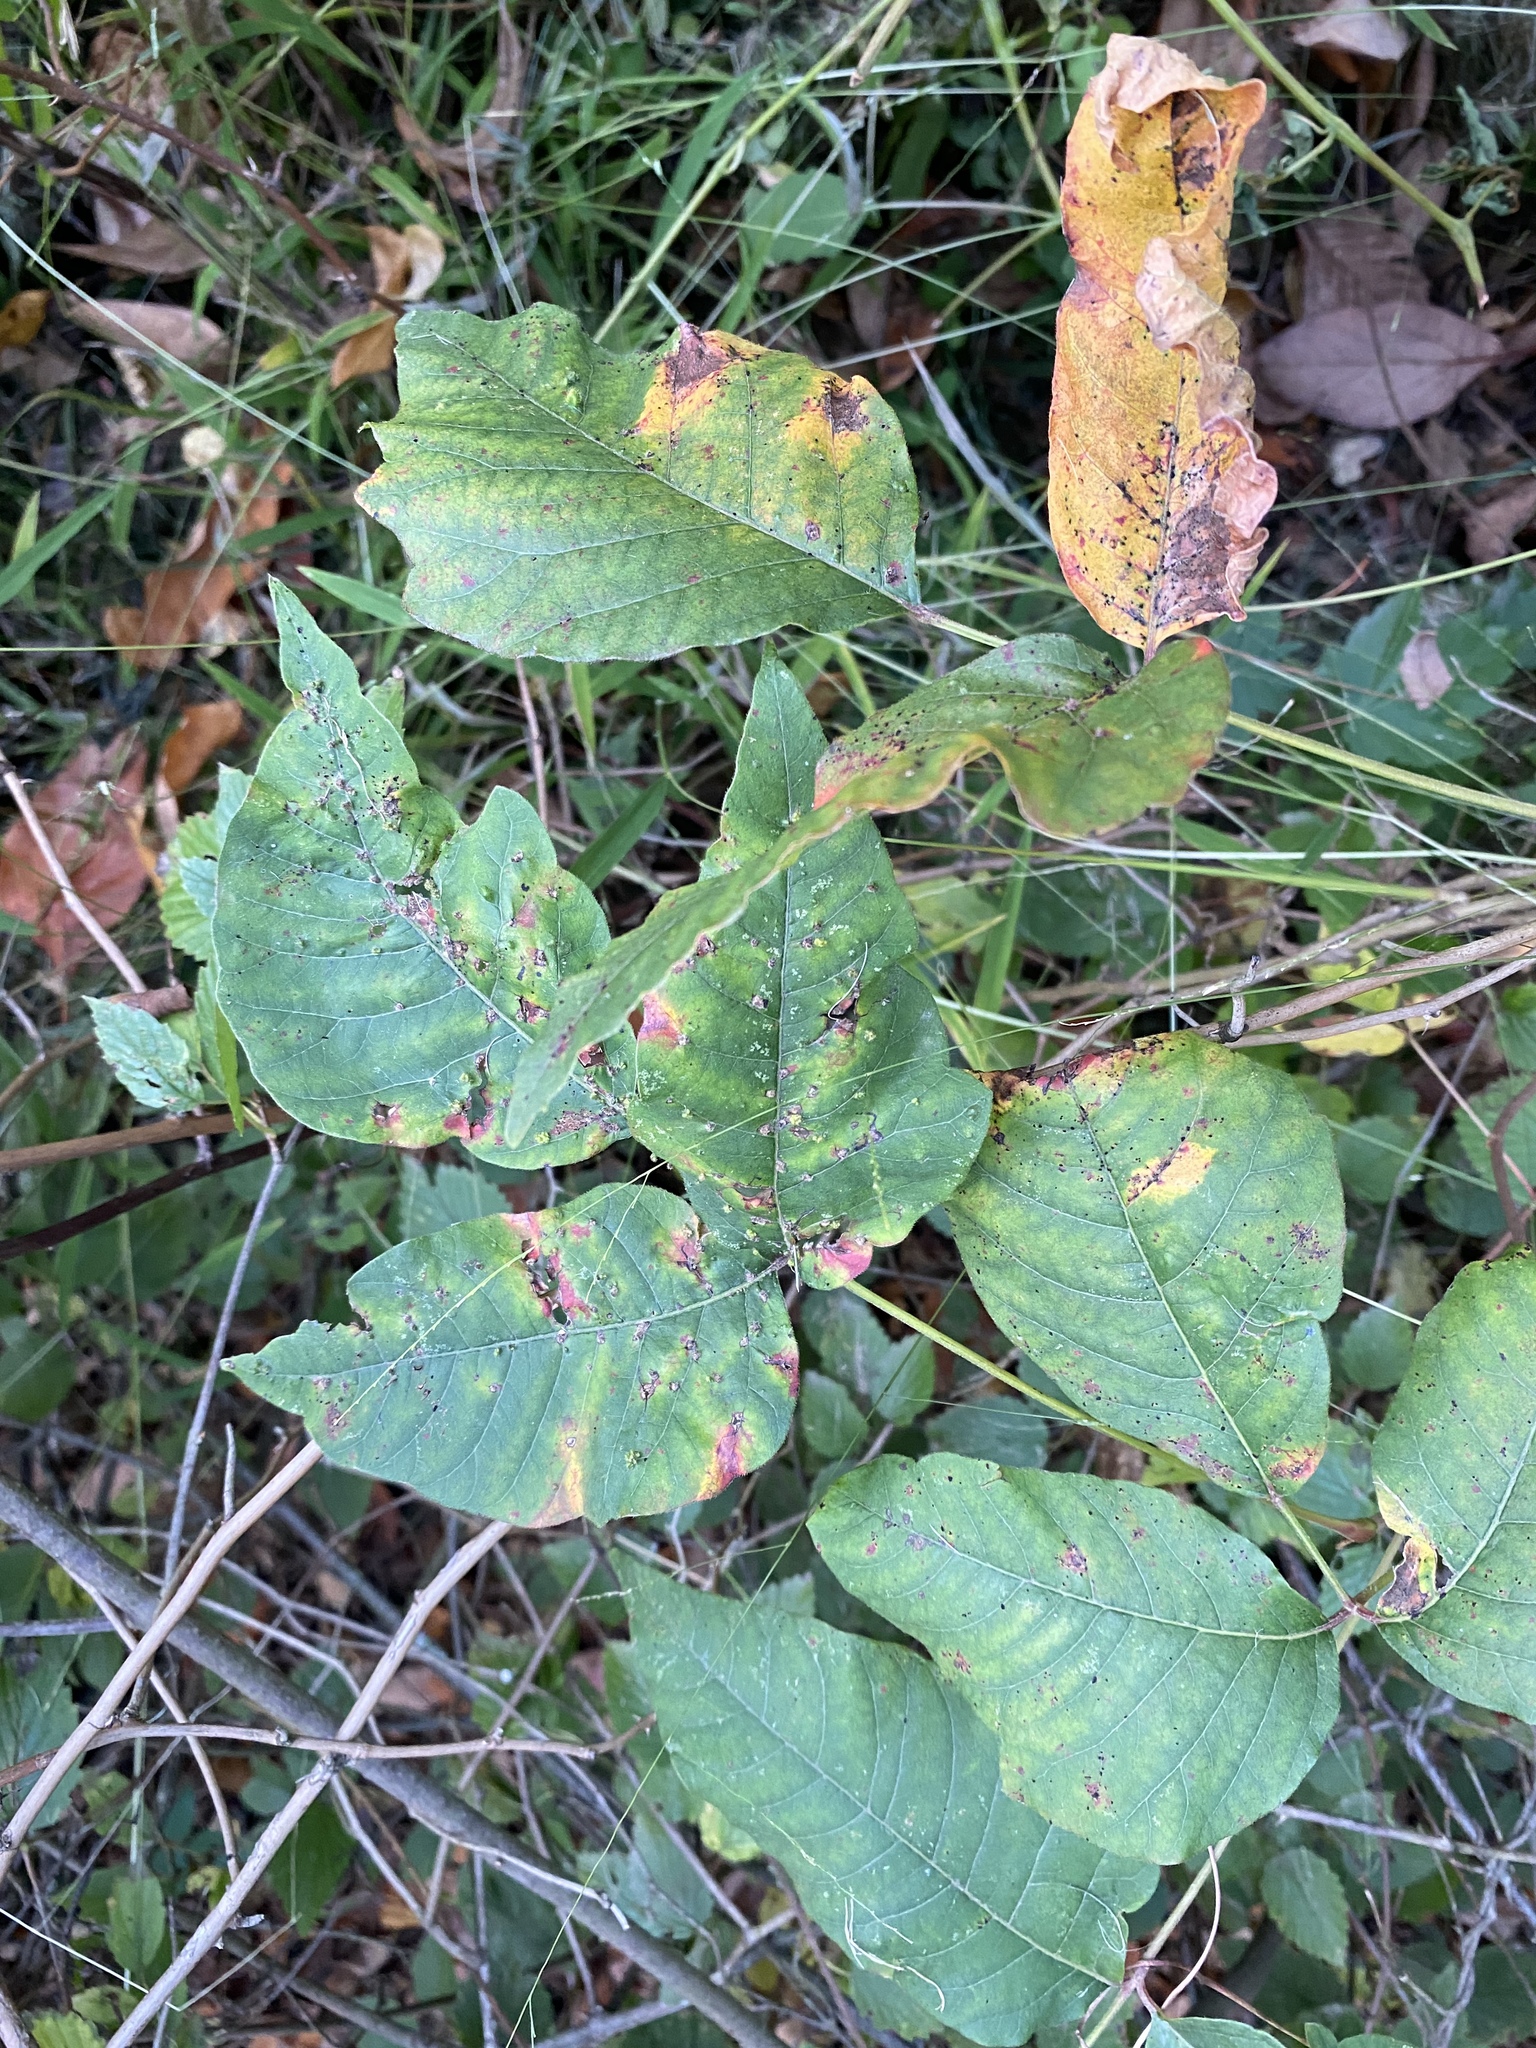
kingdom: Plantae
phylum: Tracheophyta
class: Magnoliopsida
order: Sapindales
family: Anacardiaceae
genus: Toxicodendron
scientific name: Toxicodendron radicans
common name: Poison ivy
